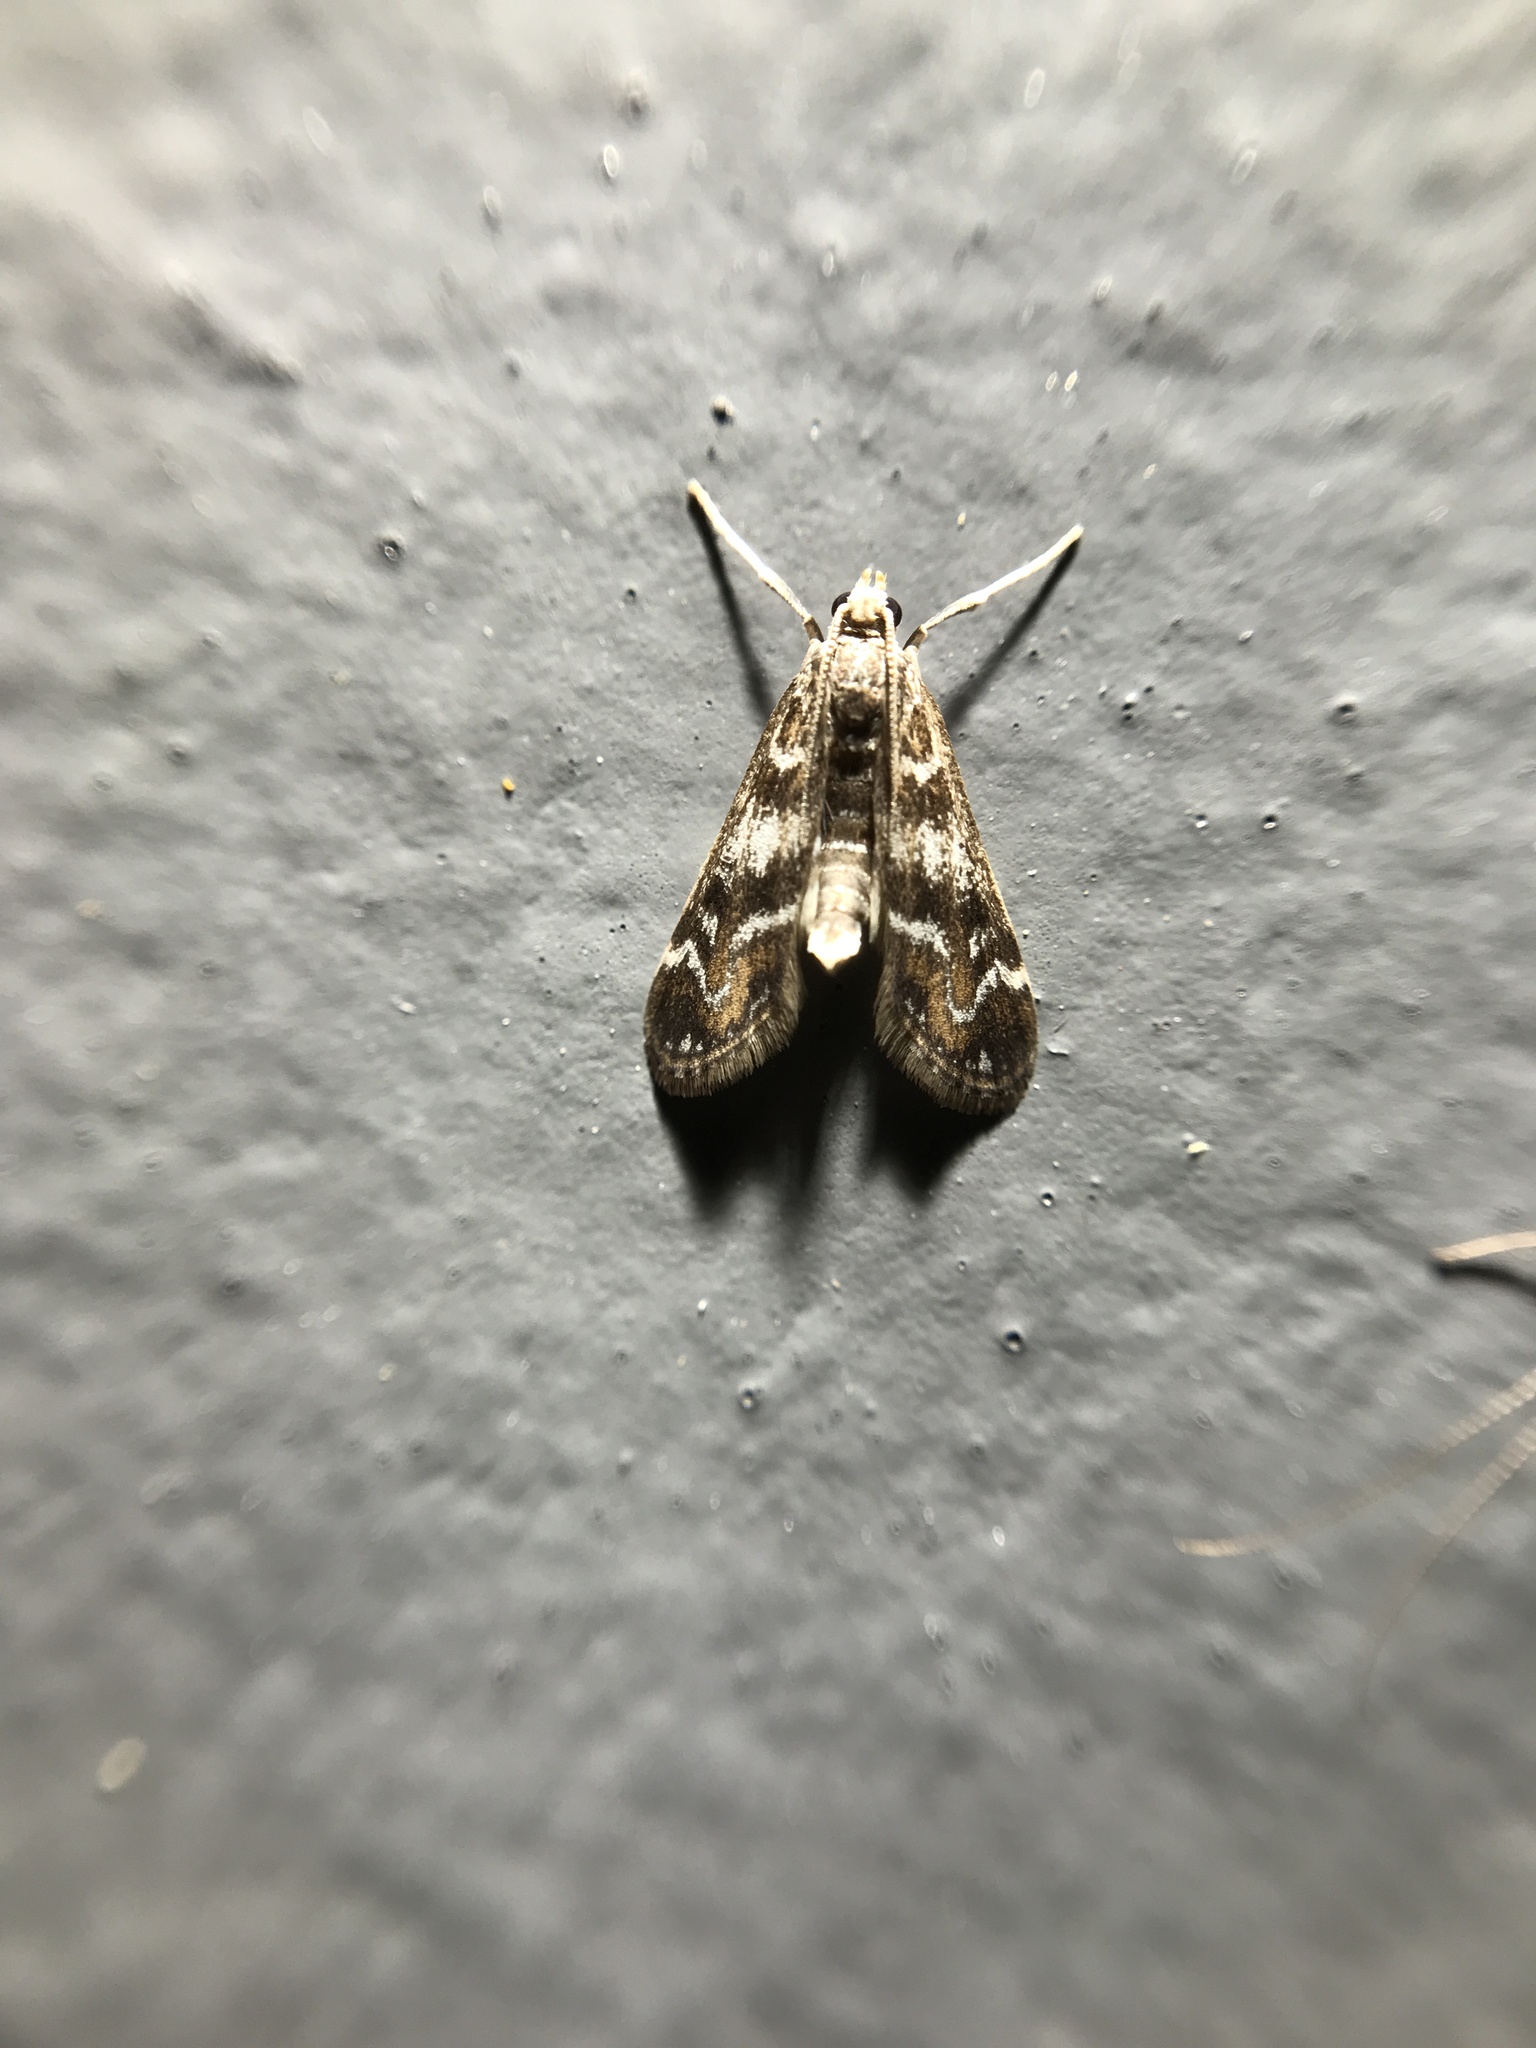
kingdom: Animalia
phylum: Arthropoda
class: Insecta
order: Lepidoptera
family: Crambidae
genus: Hygraula
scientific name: Hygraula nitens
